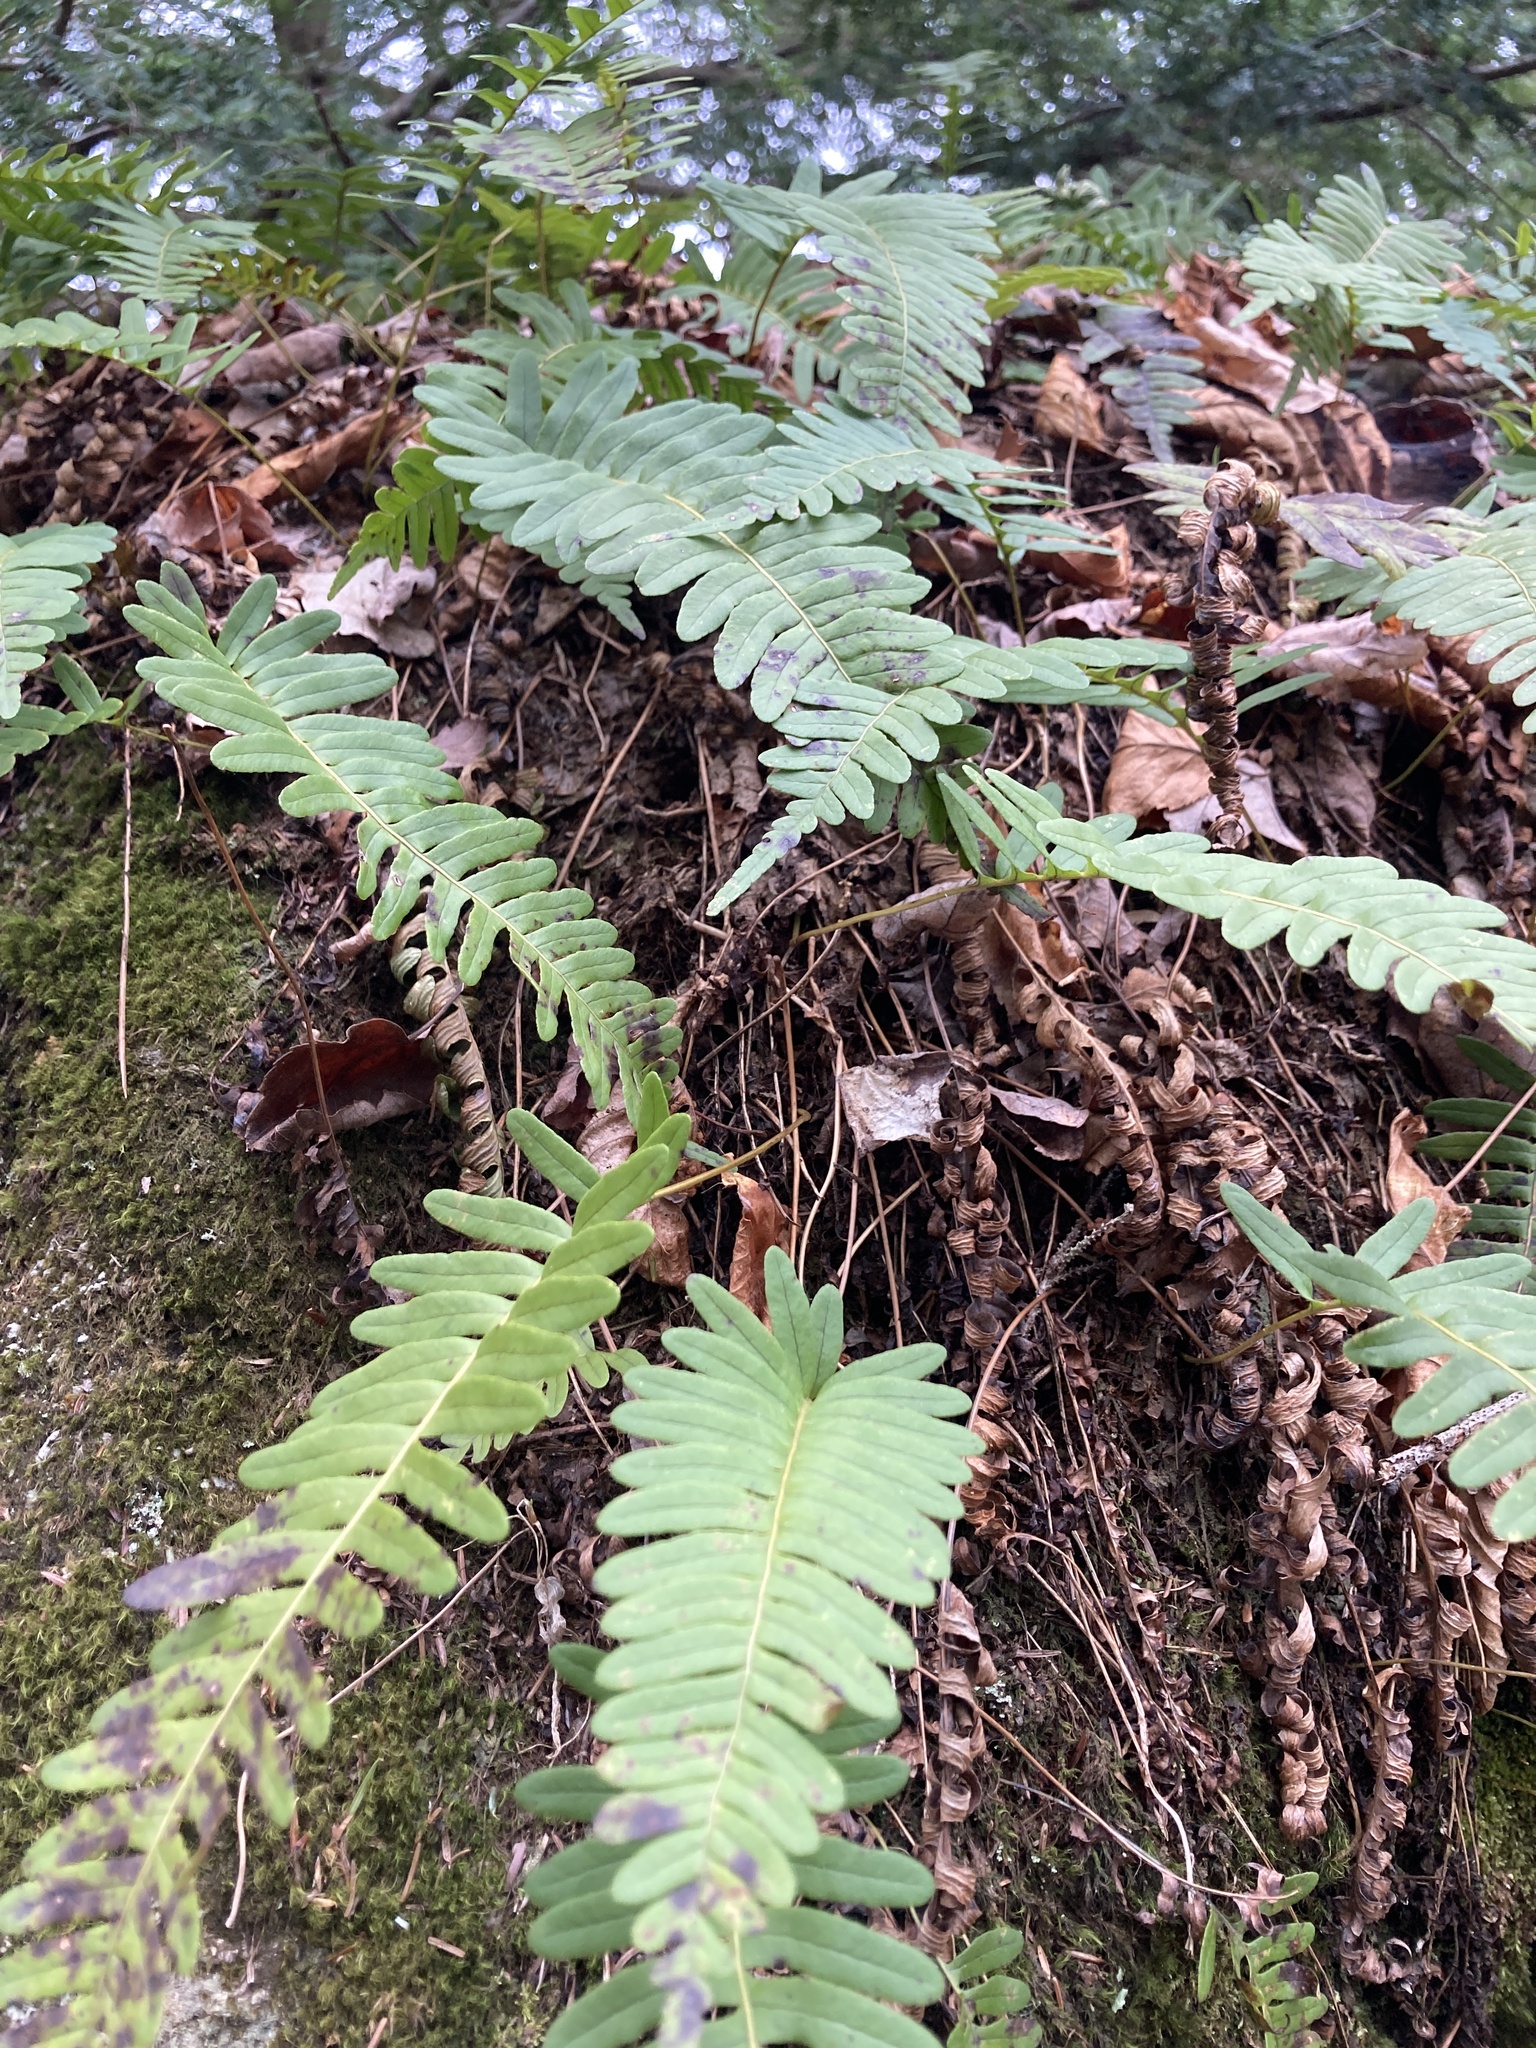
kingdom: Plantae
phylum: Tracheophyta
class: Polypodiopsida
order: Polypodiales
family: Polypodiaceae
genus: Polypodium
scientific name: Polypodium virginianum
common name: American wall fern
